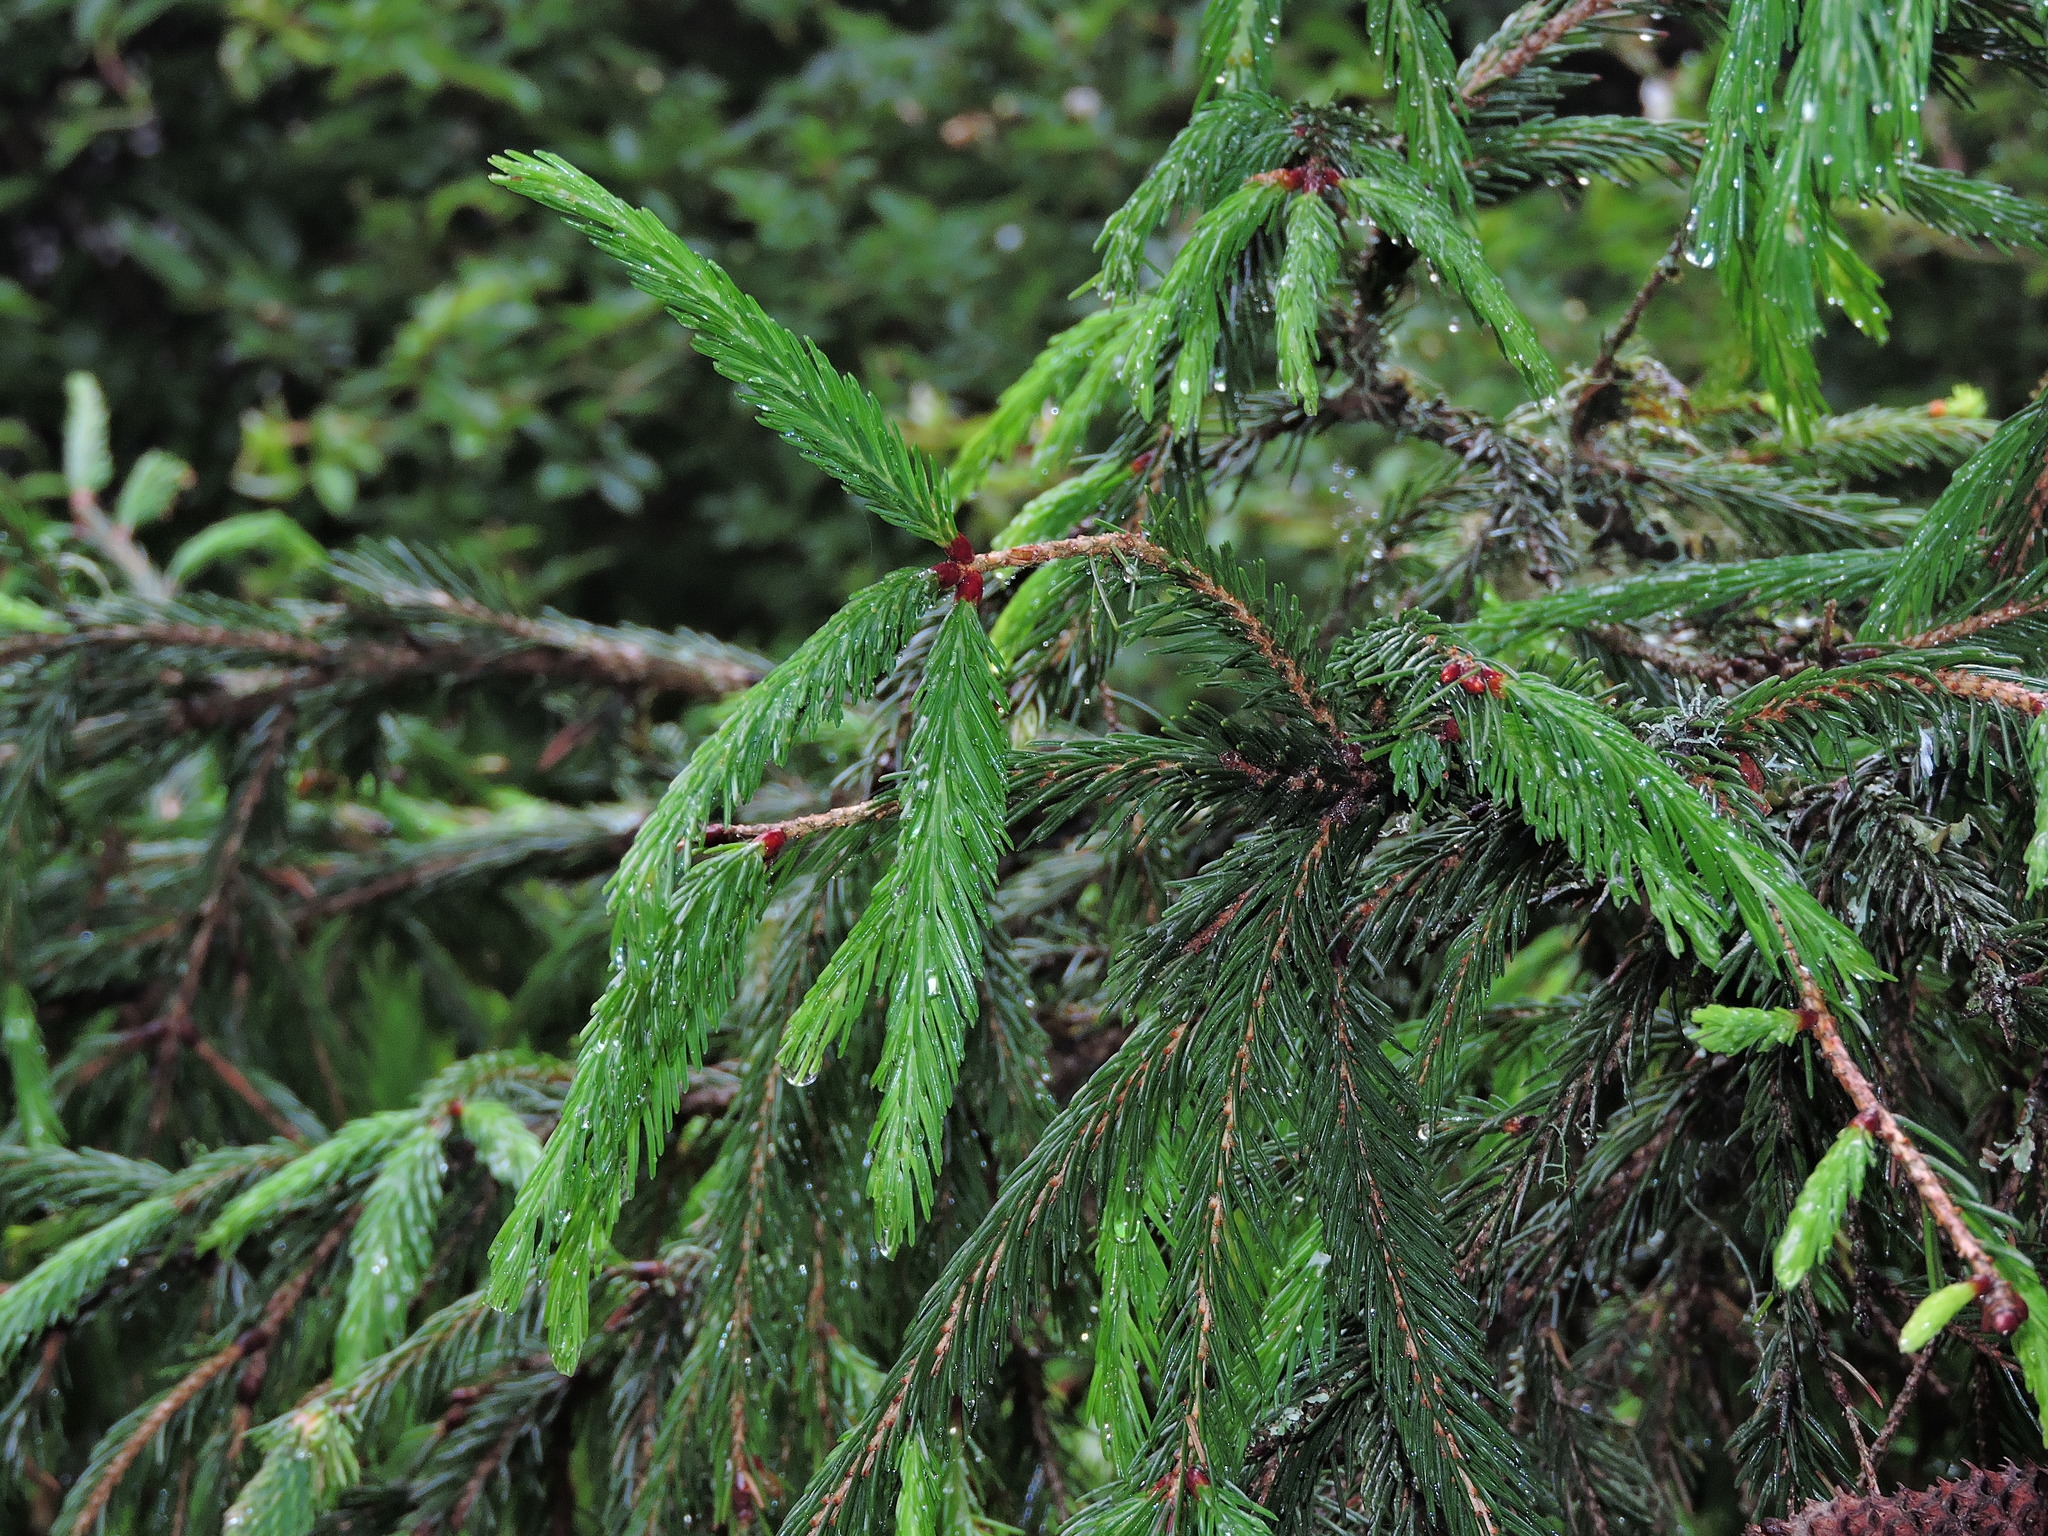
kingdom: Plantae
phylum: Tracheophyta
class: Pinopsida
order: Pinales
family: Pinaceae
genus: Picea
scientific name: Picea morrisonicola
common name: Mount morrison spruce
